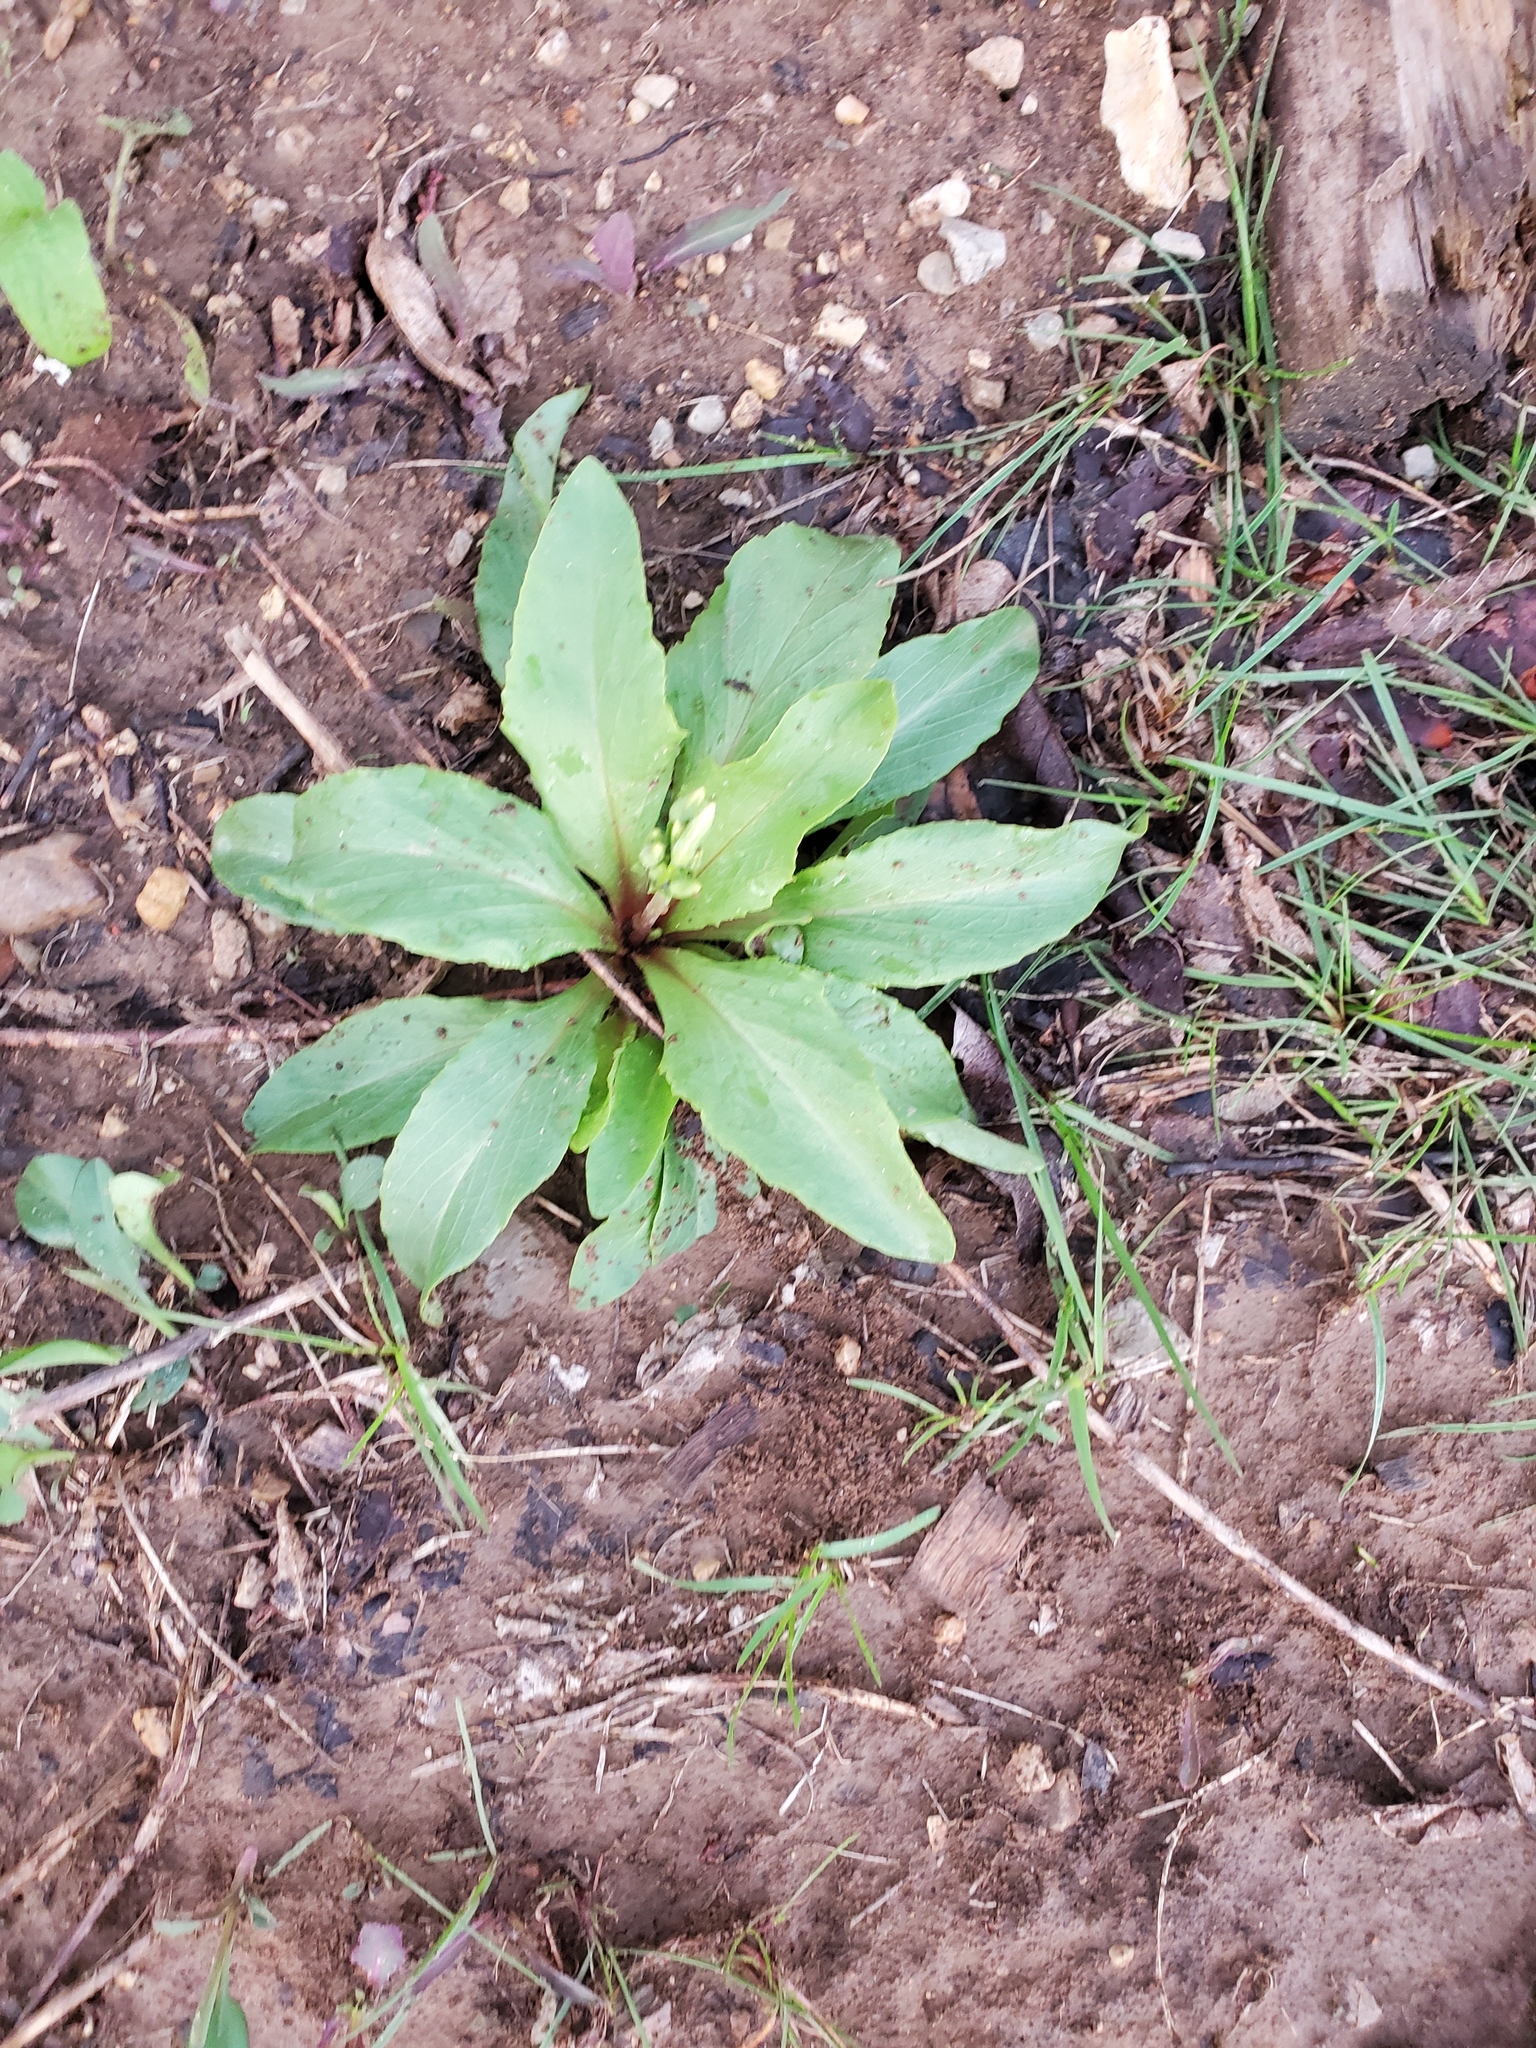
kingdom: Plantae
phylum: Tracheophyta
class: Magnoliopsida
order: Ericales
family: Primulaceae
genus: Dodecatheon
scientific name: Dodecatheon meadia
